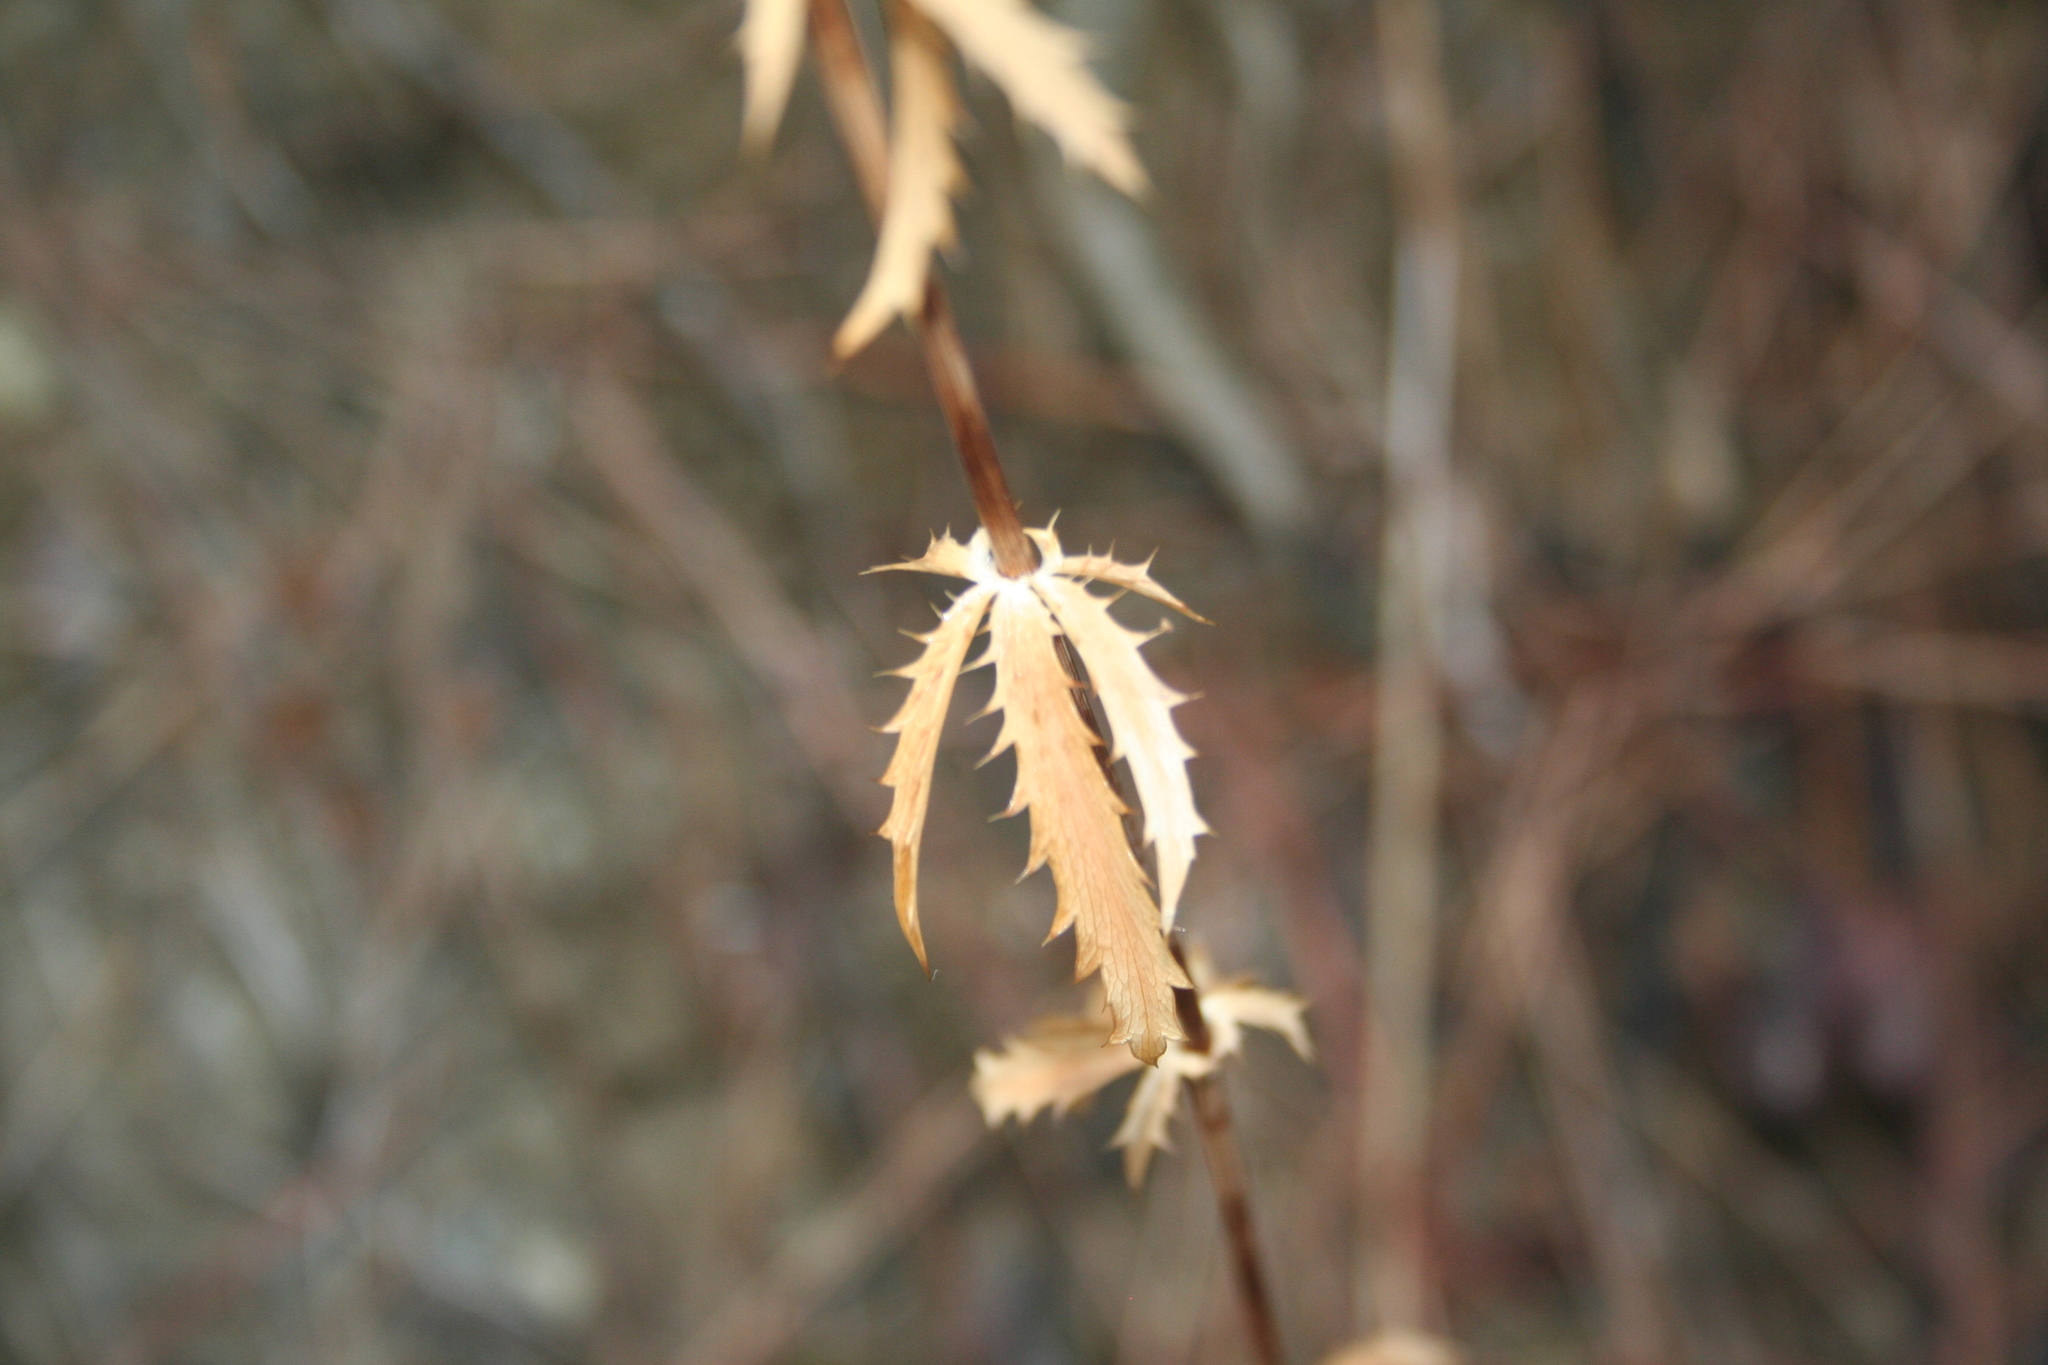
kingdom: Plantae
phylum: Tracheophyta
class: Magnoliopsida
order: Apiales
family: Apiaceae
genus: Eryngium
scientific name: Eryngium falcatum
